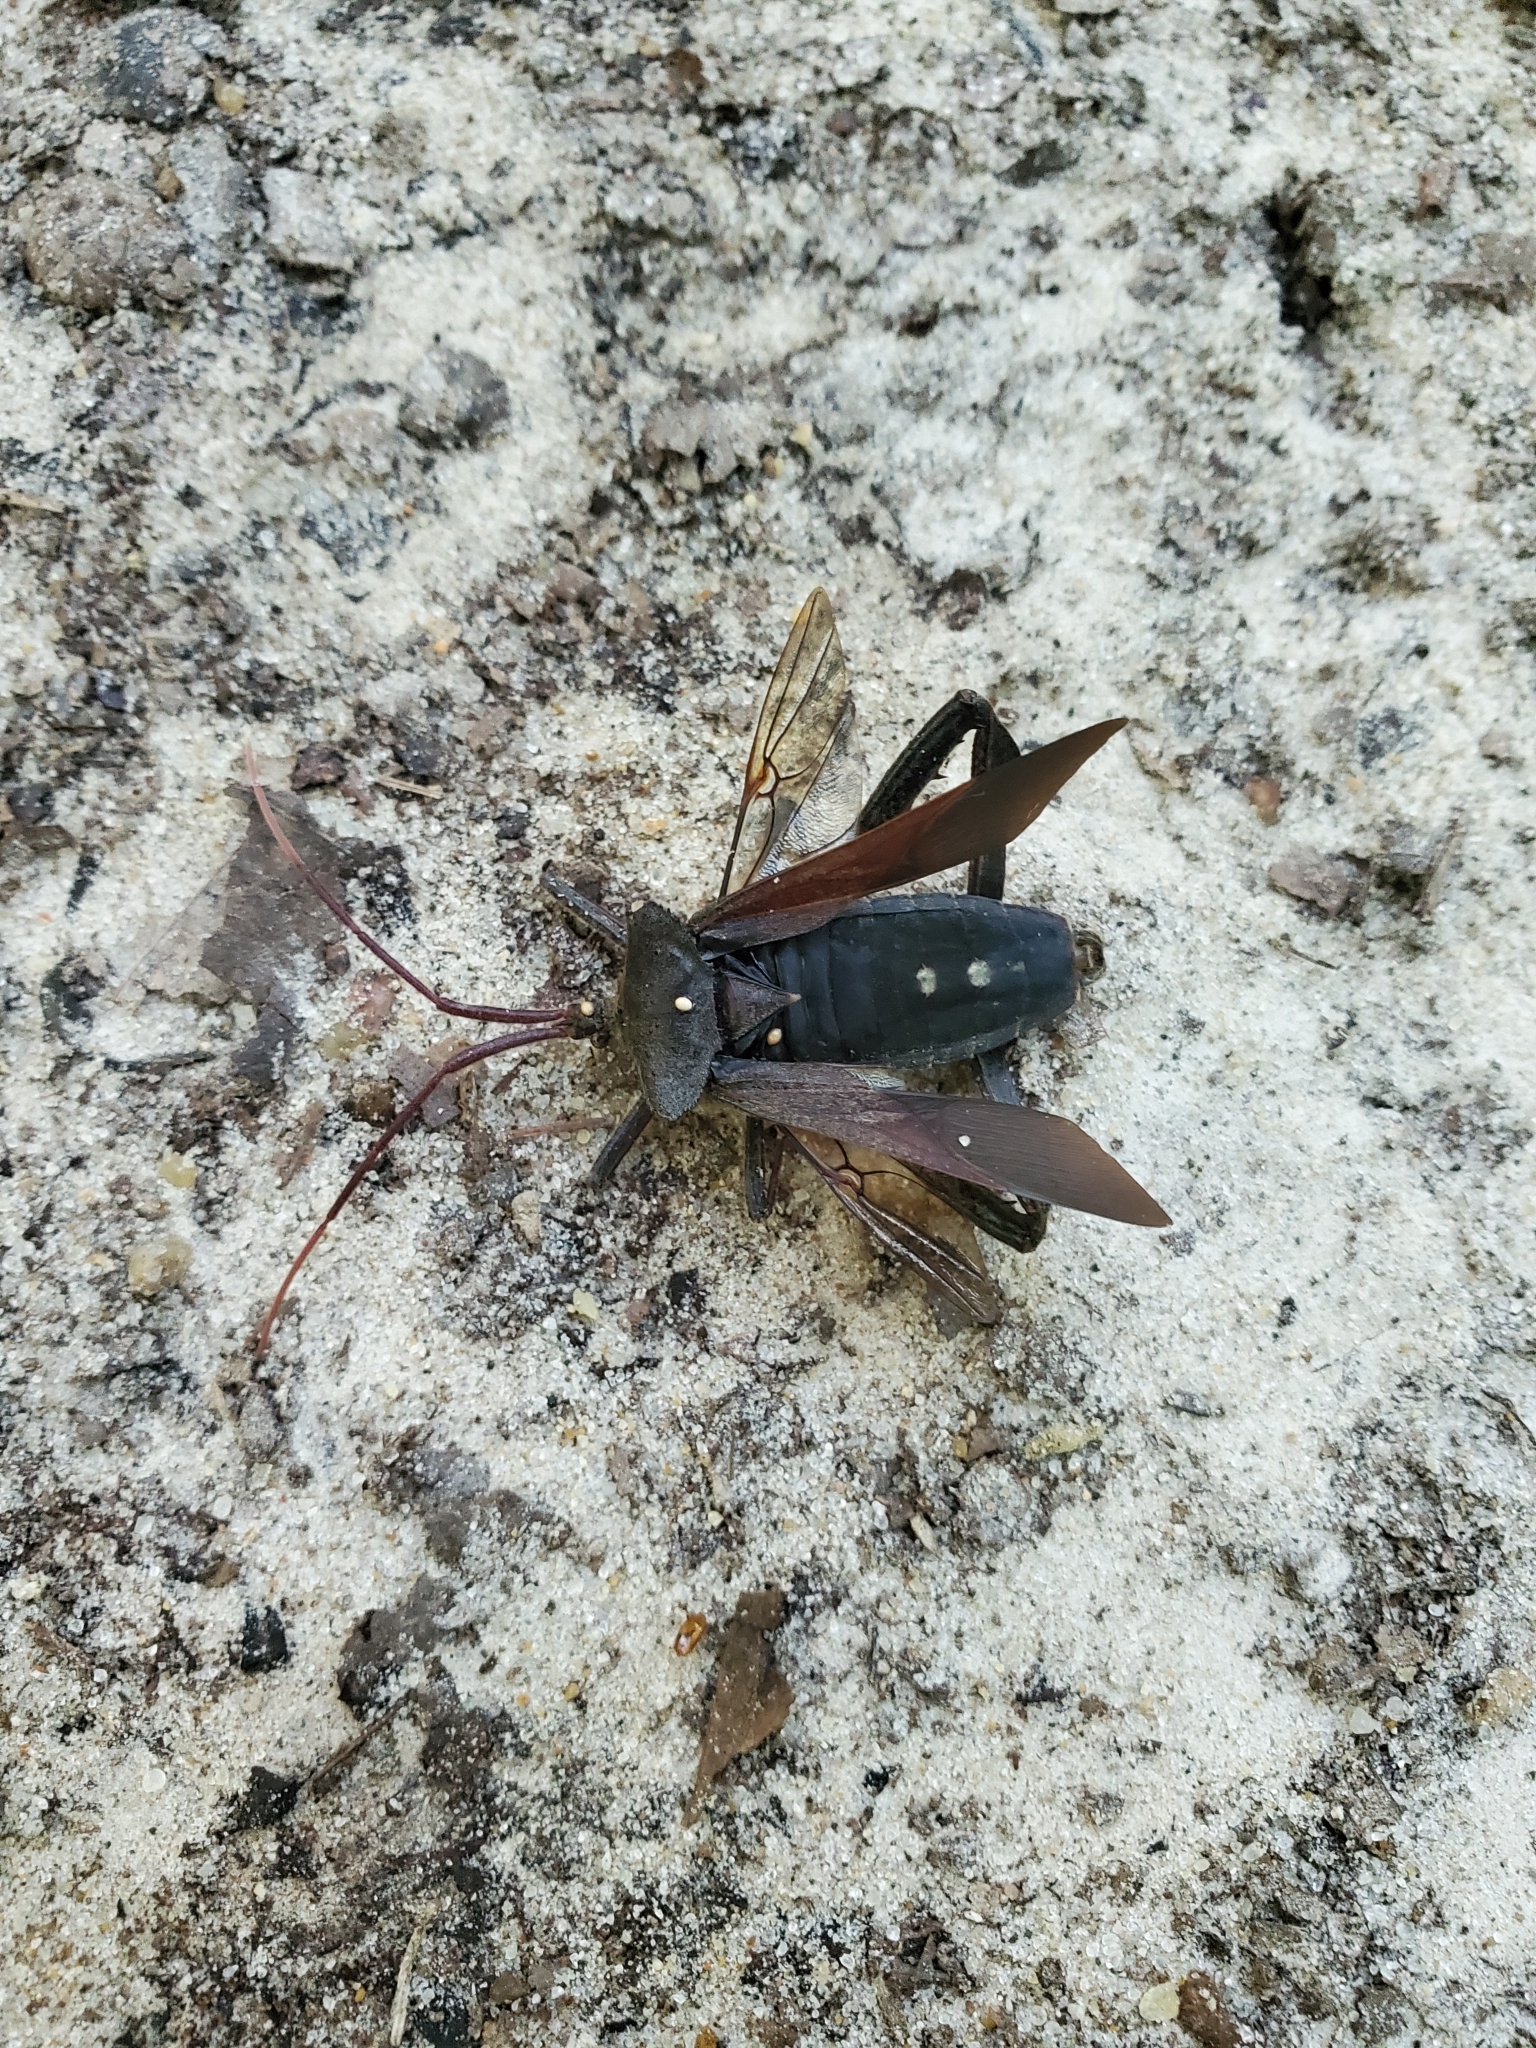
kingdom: Animalia
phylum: Arthropoda
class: Insecta
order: Hemiptera
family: Coreidae
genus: Acanthocephala
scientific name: Acanthocephala declivis
